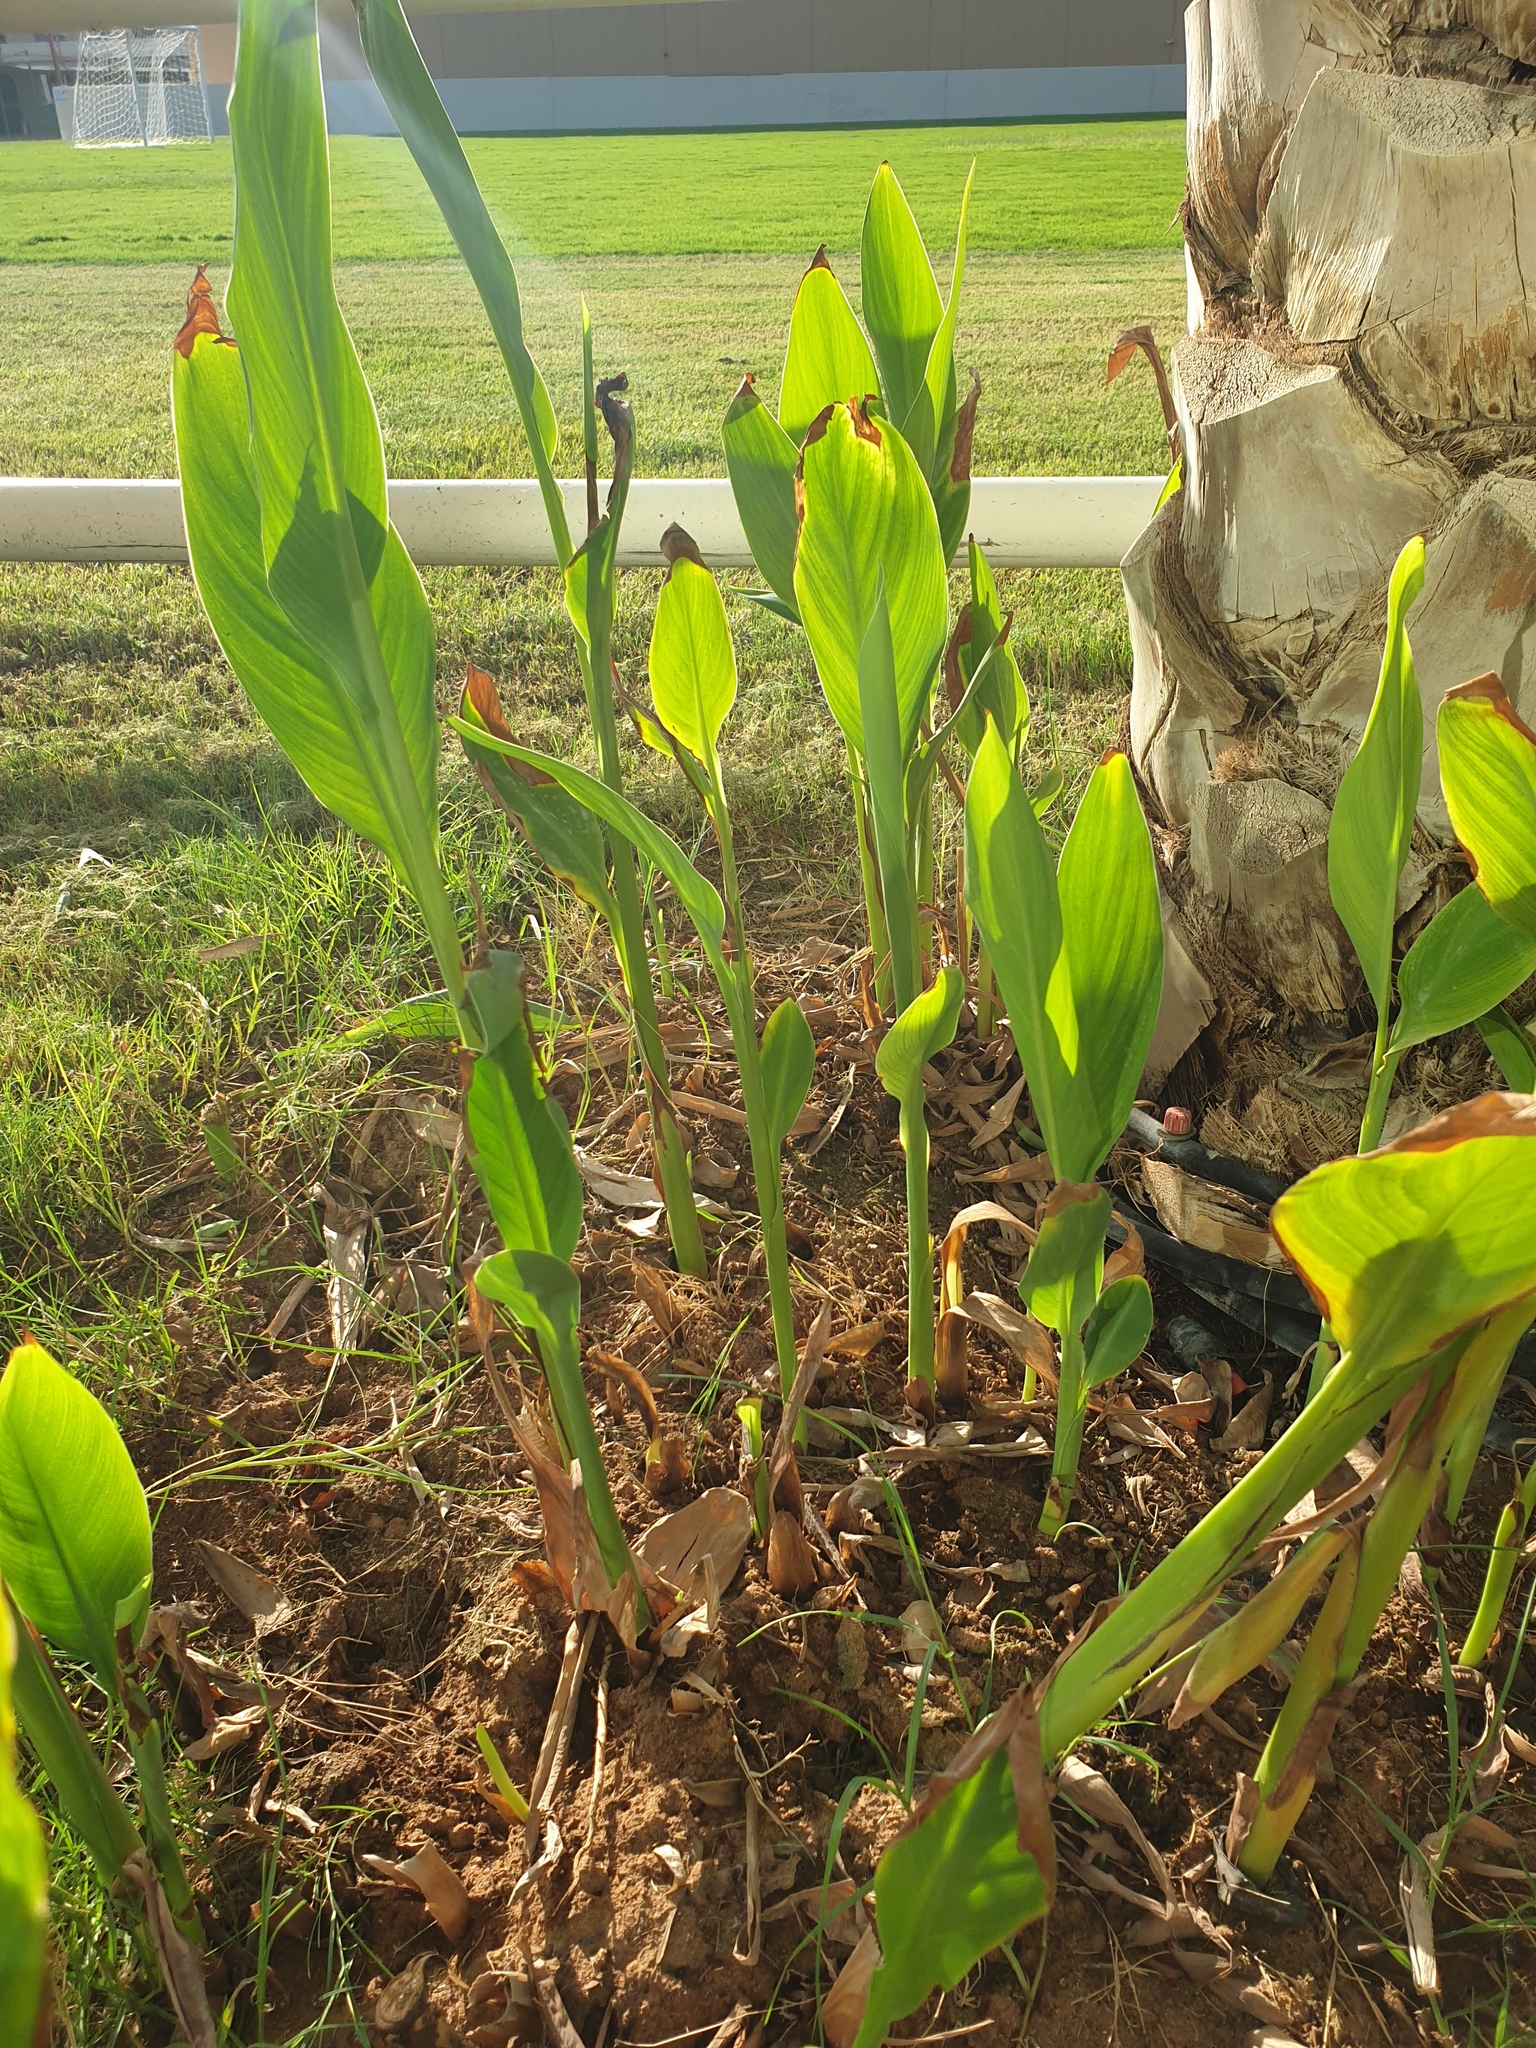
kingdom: Plantae
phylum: Tracheophyta
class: Liliopsida
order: Zingiberales
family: Cannaceae
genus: Canna
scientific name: Canna indica
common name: Indian shot
